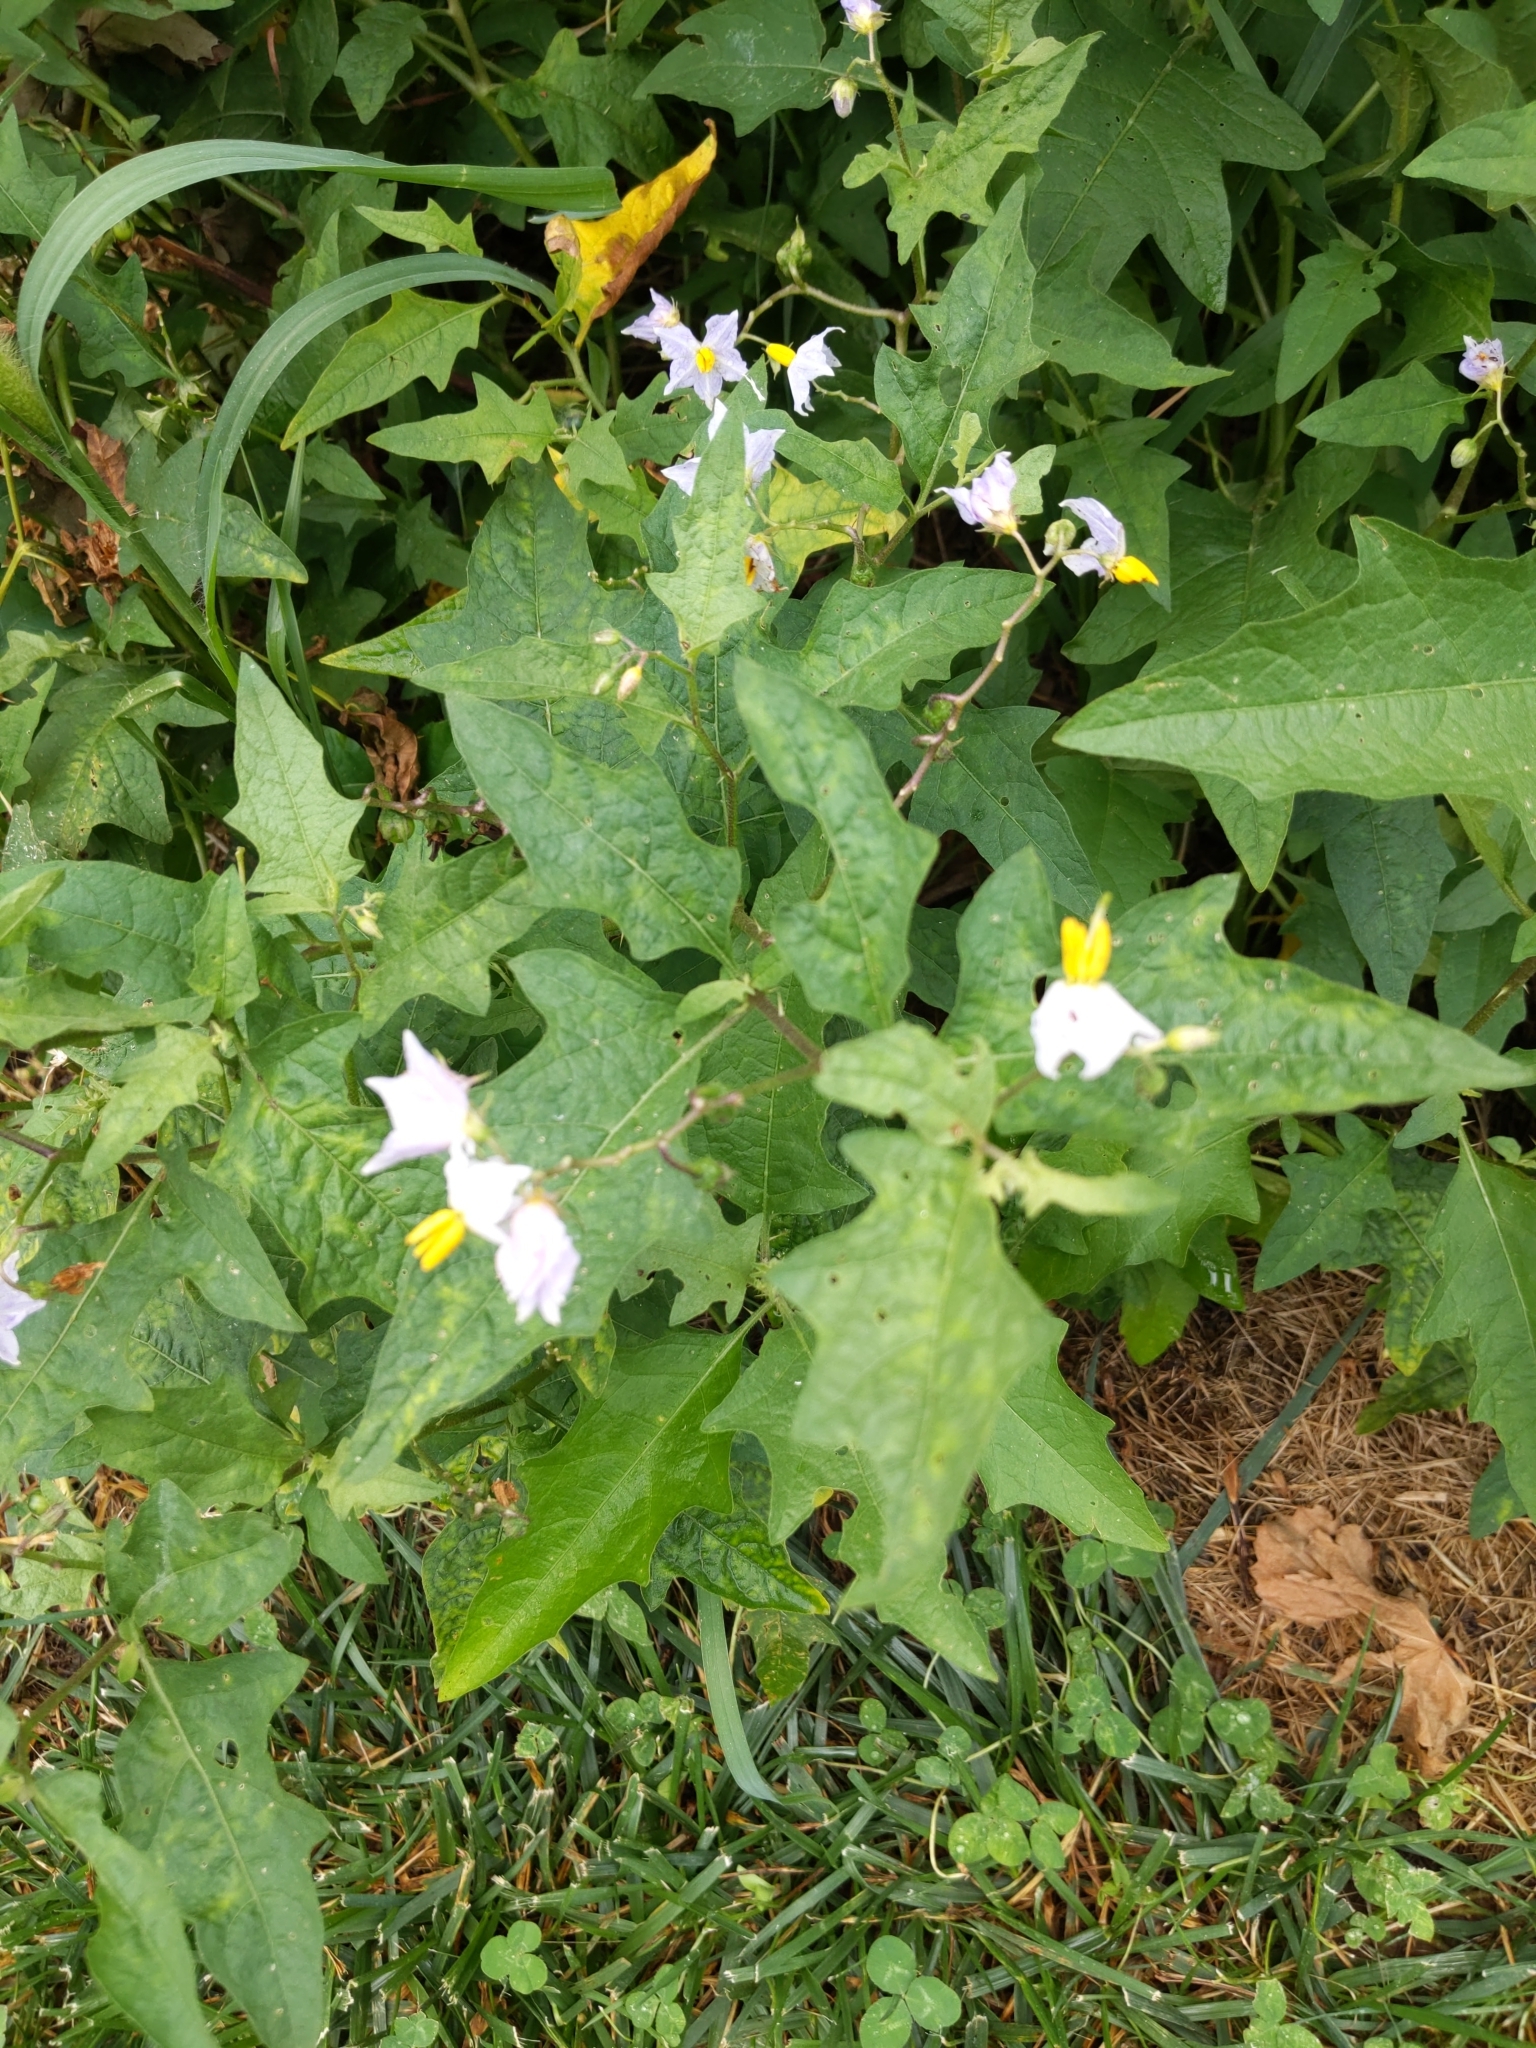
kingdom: Plantae
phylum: Tracheophyta
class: Magnoliopsida
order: Solanales
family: Solanaceae
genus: Solanum
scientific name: Solanum carolinense
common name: Horse-nettle
